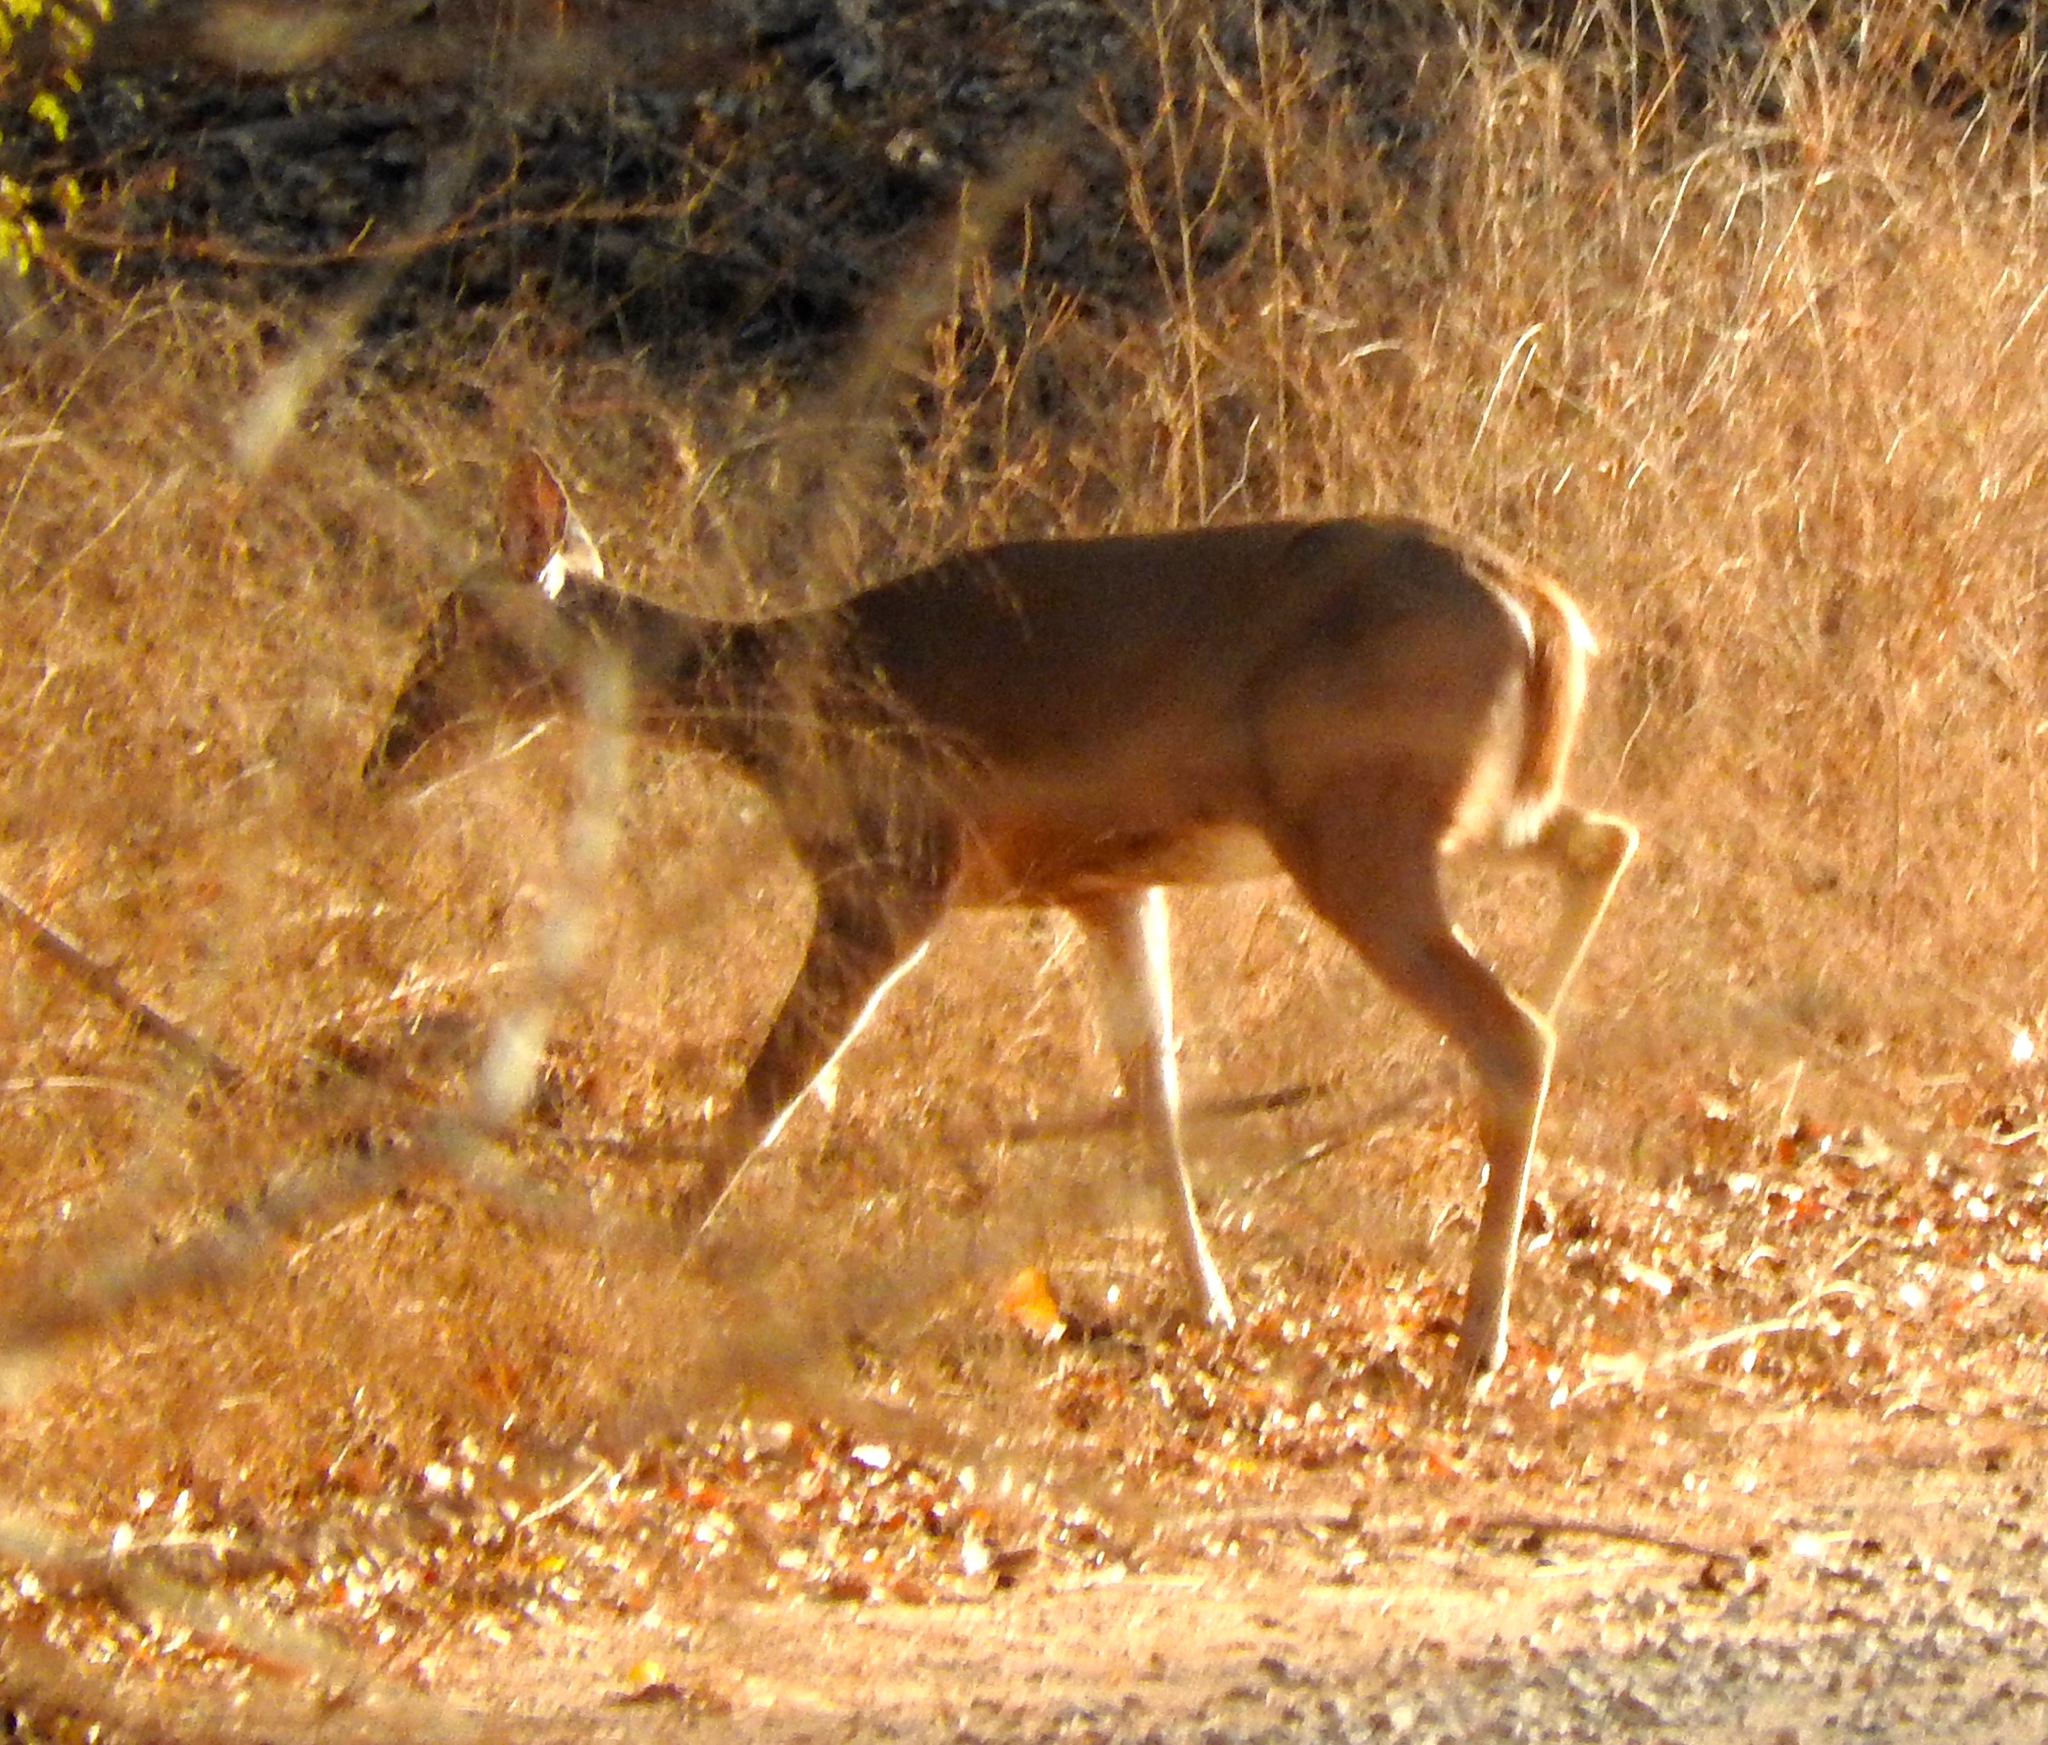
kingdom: Animalia
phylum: Chordata
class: Mammalia
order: Artiodactyla
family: Cervidae
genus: Odocoileus
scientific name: Odocoileus virginianus
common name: White-tailed deer
